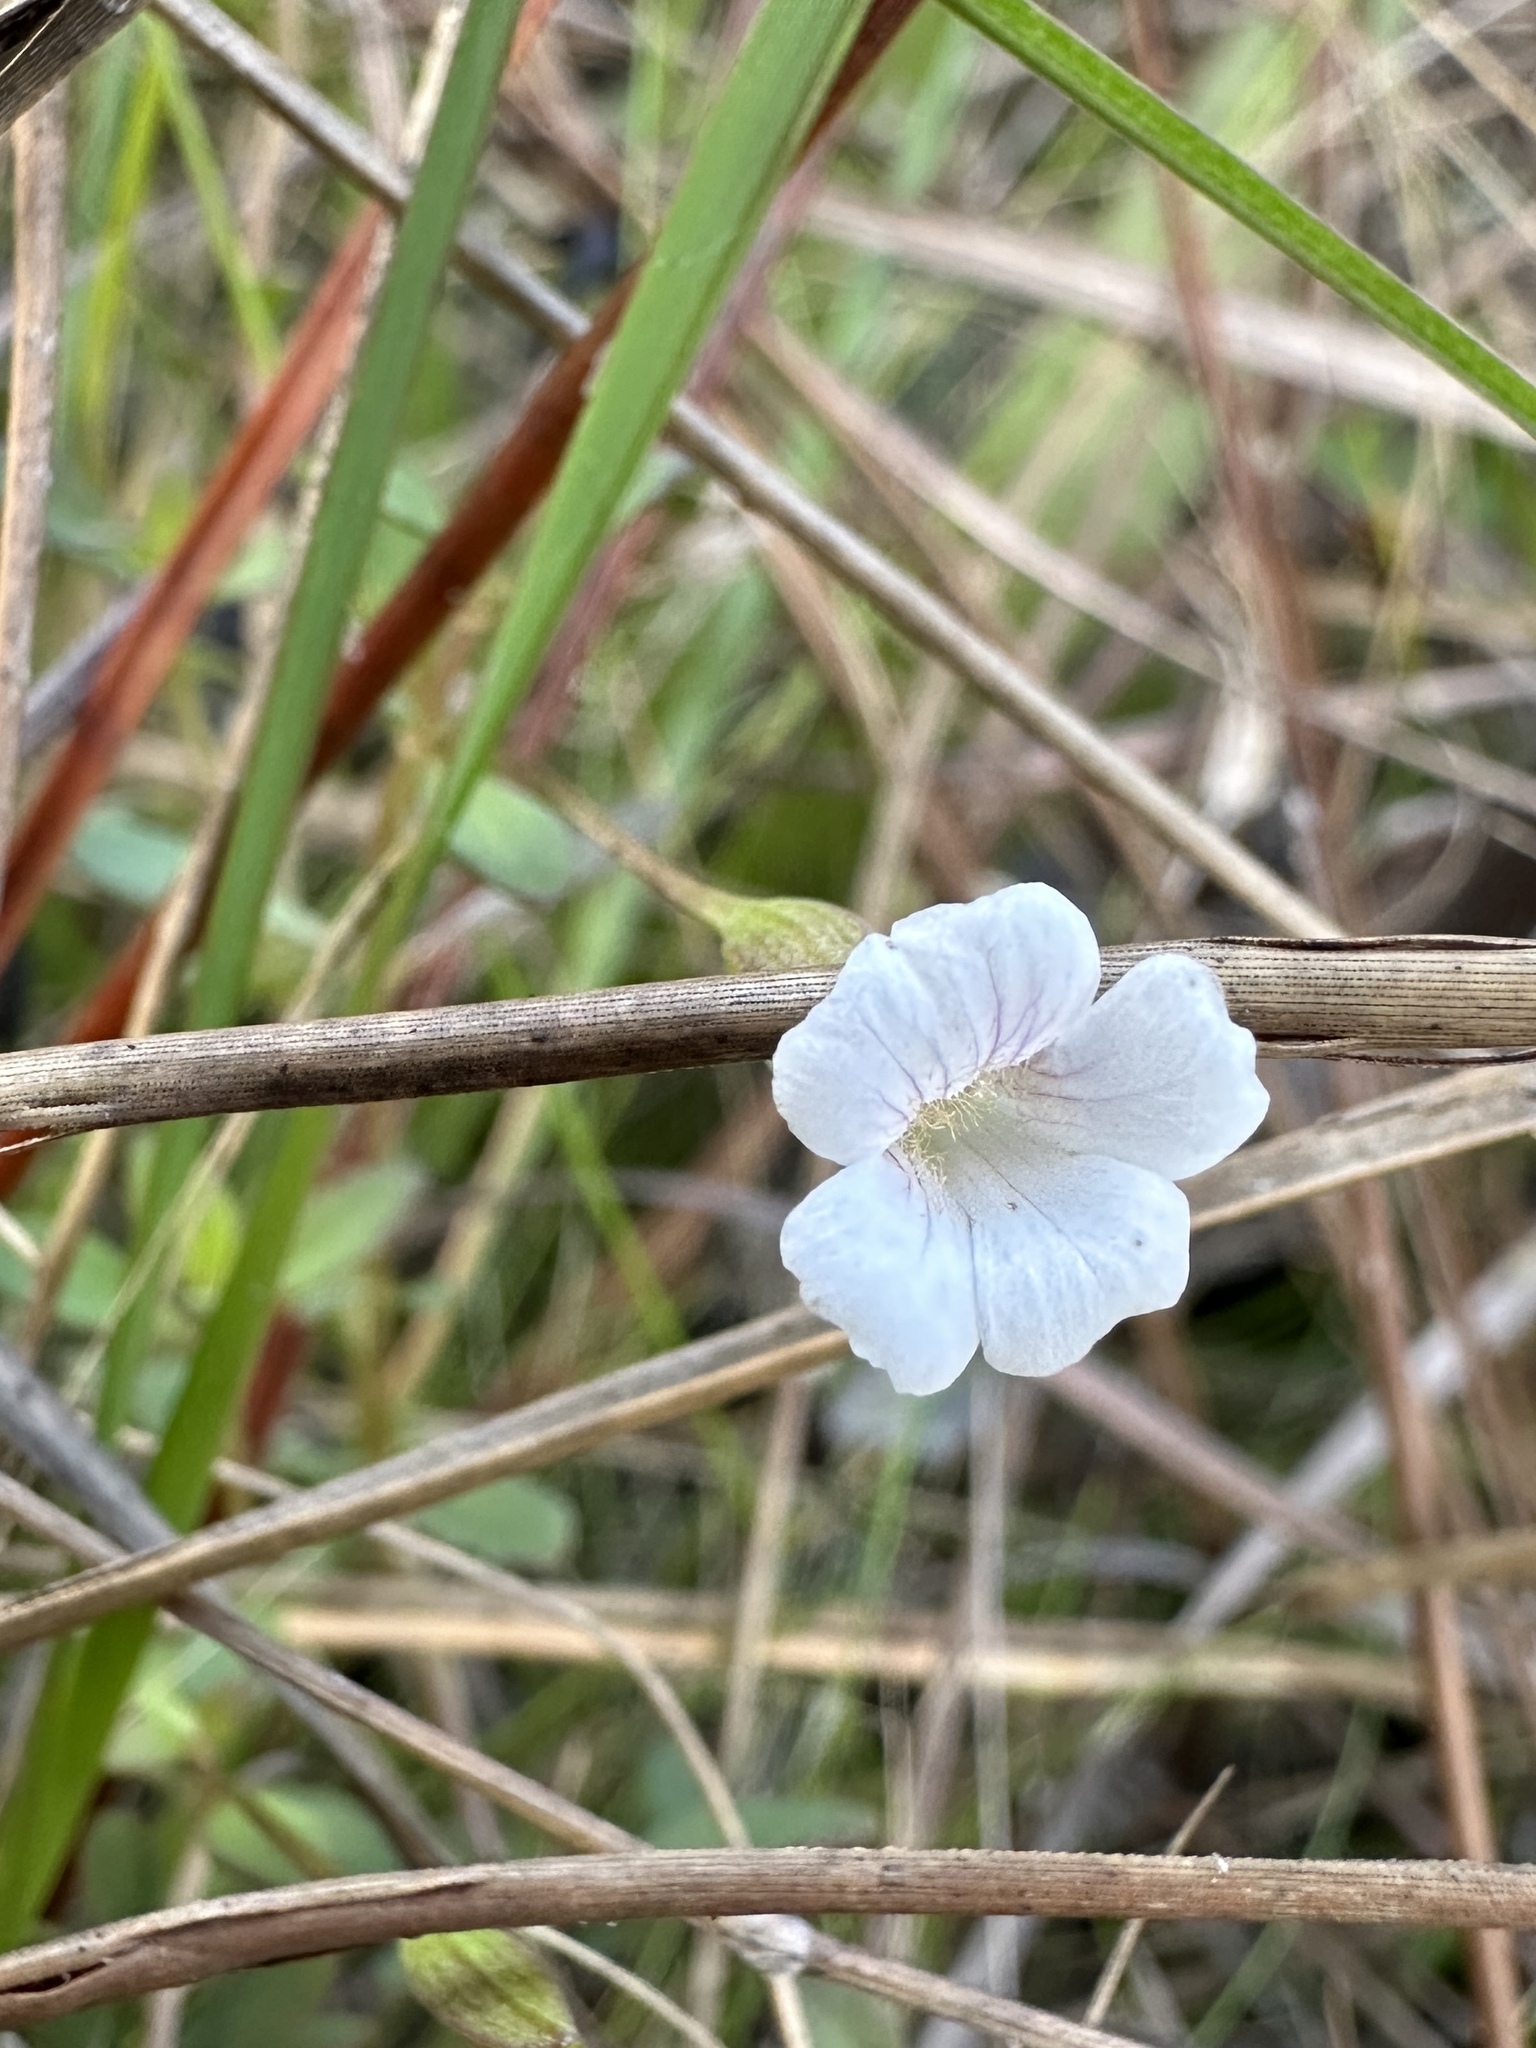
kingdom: Plantae
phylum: Tracheophyta
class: Magnoliopsida
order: Lamiales
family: Plantaginaceae
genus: Mecardonia
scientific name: Mecardonia acuminata
